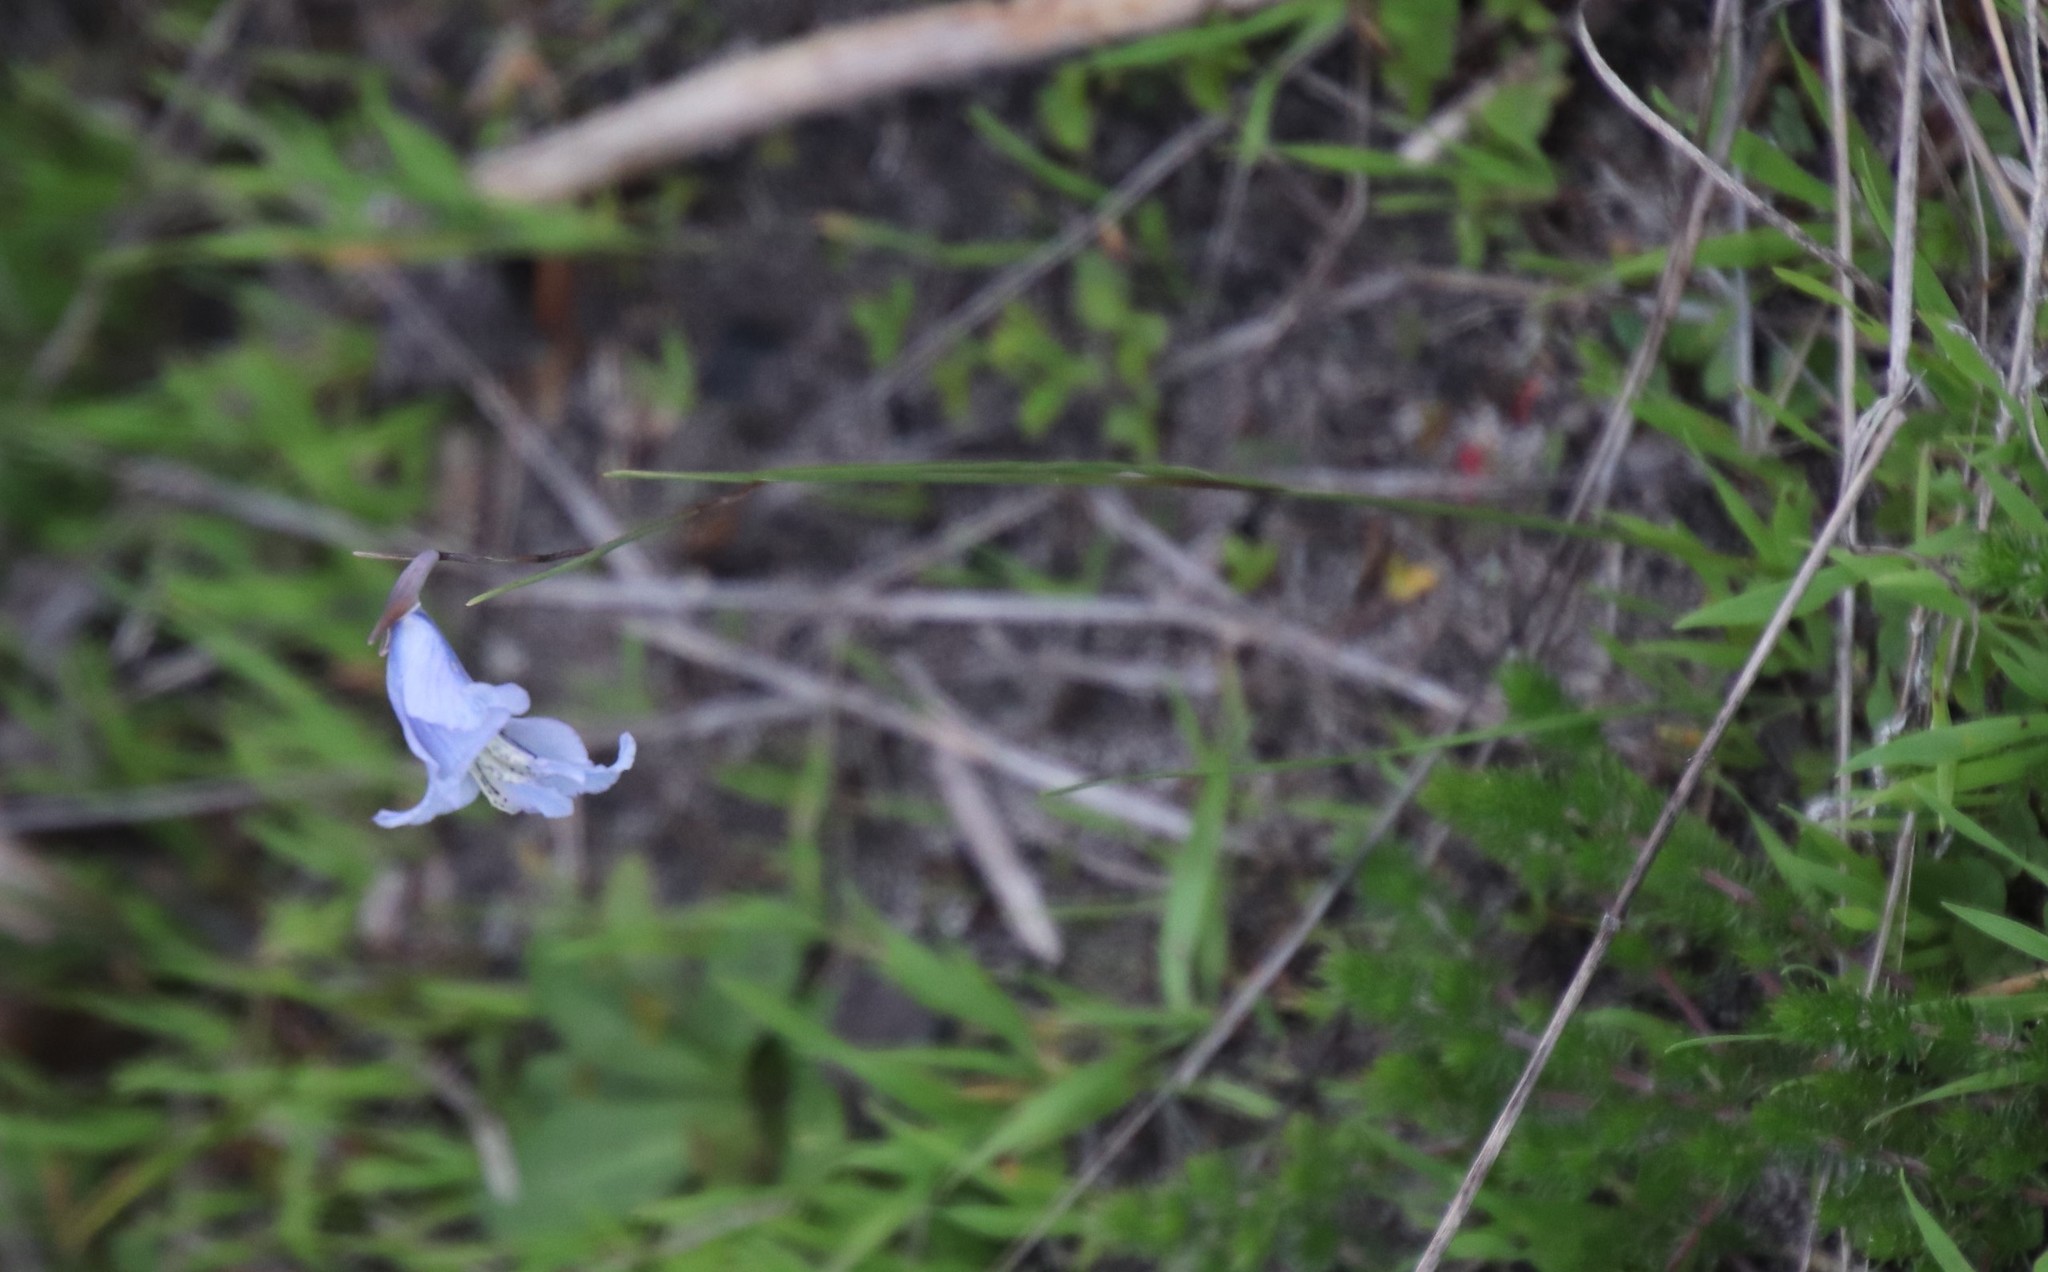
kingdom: Plantae
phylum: Tracheophyta
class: Liliopsida
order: Asparagales
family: Iridaceae
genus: Gladiolus
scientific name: Gladiolus gracilis
